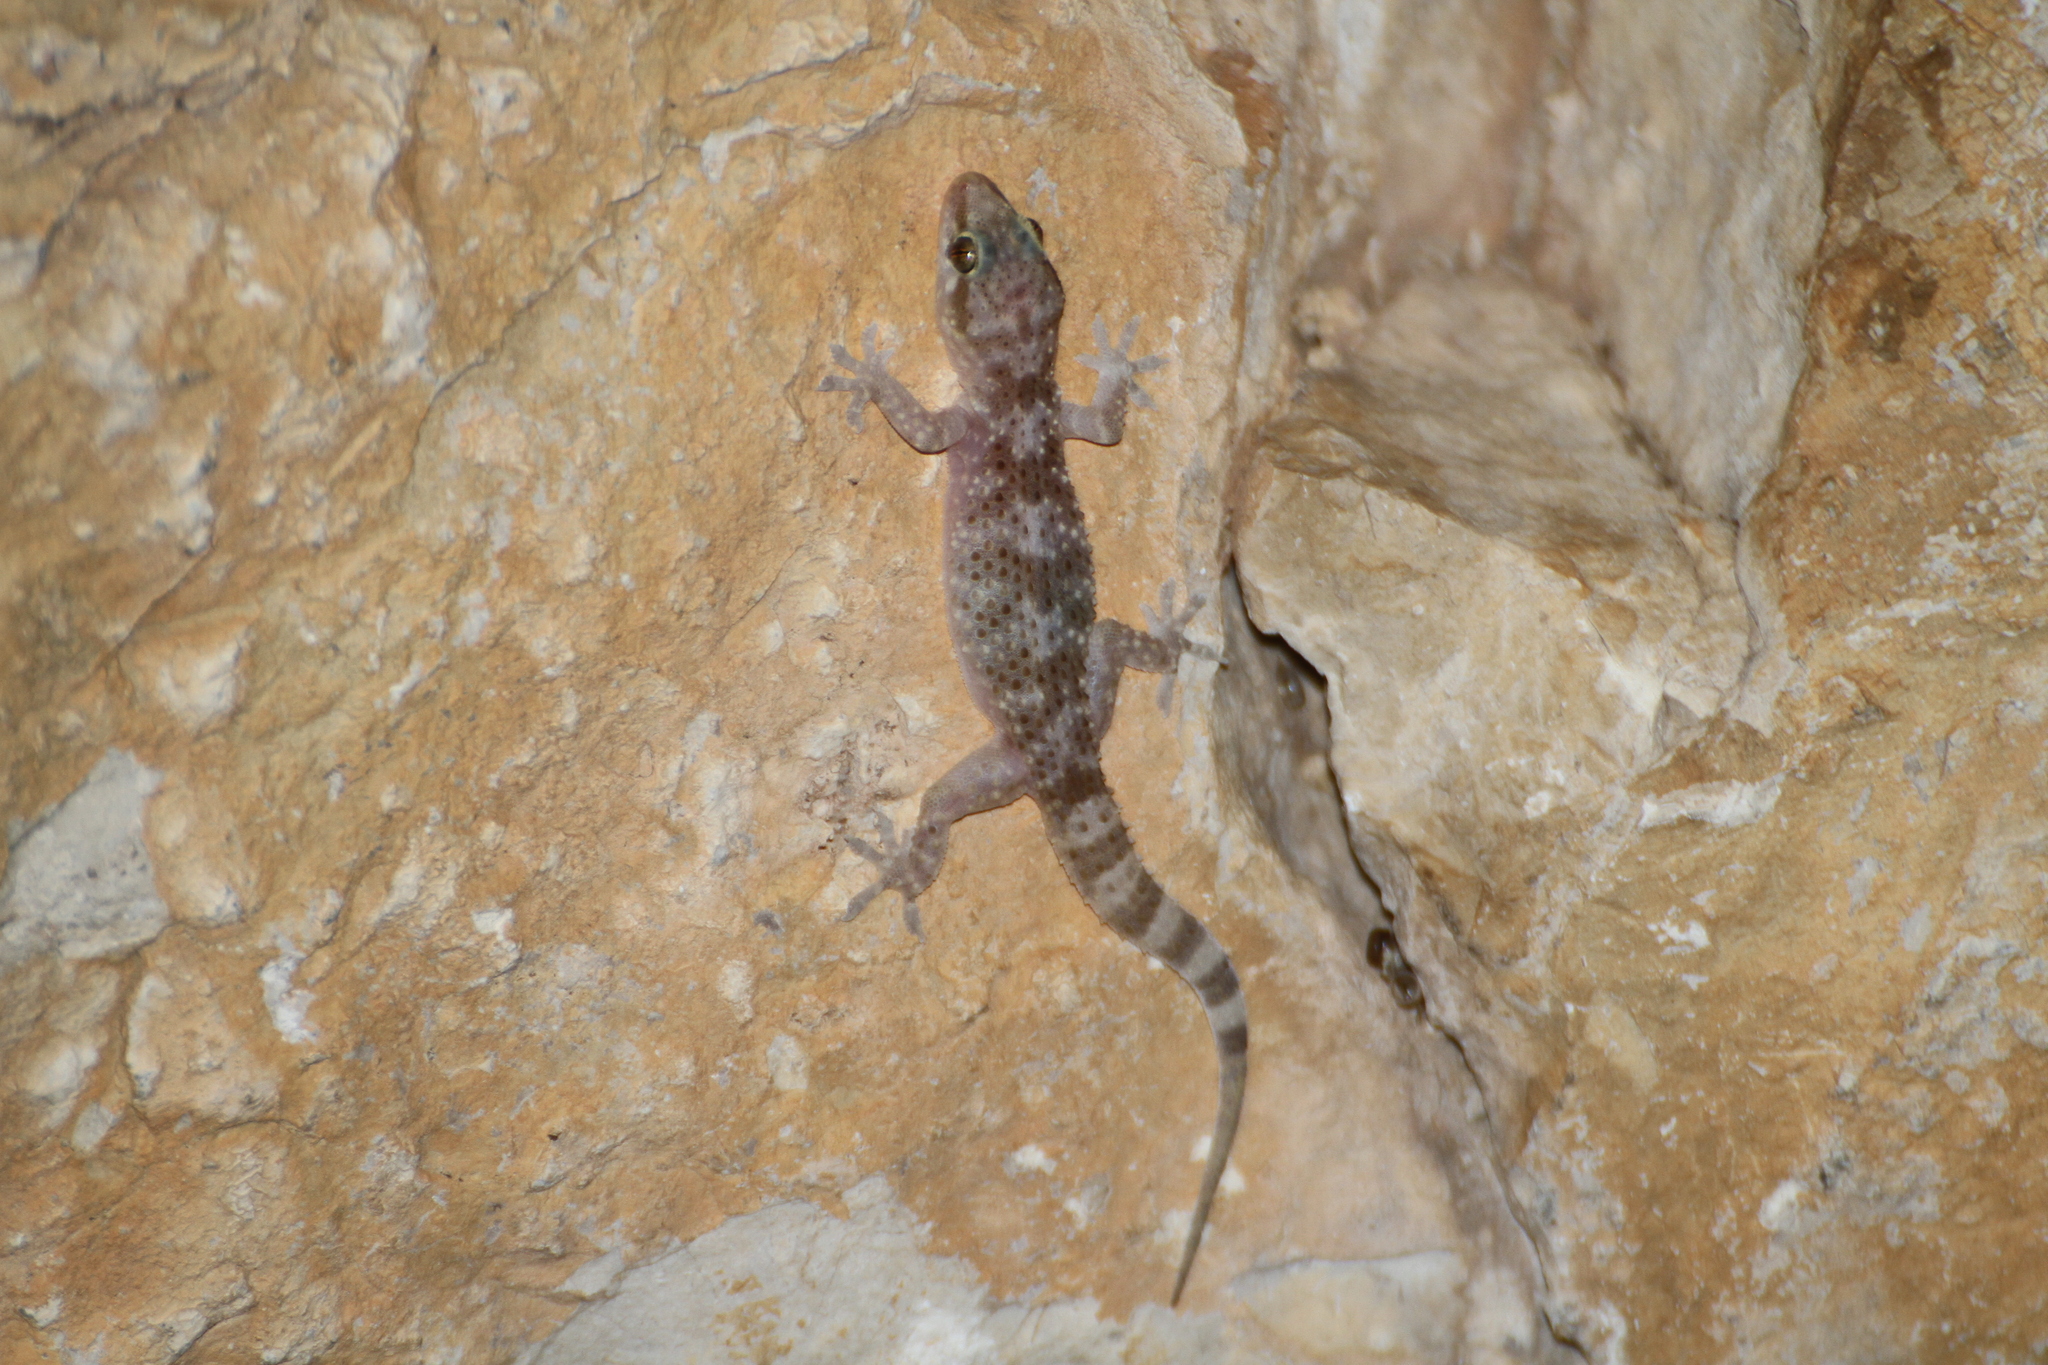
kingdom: Animalia
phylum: Chordata
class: Squamata
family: Gekkonidae
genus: Hemidactylus
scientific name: Hemidactylus turcicus
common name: Turkish gecko
